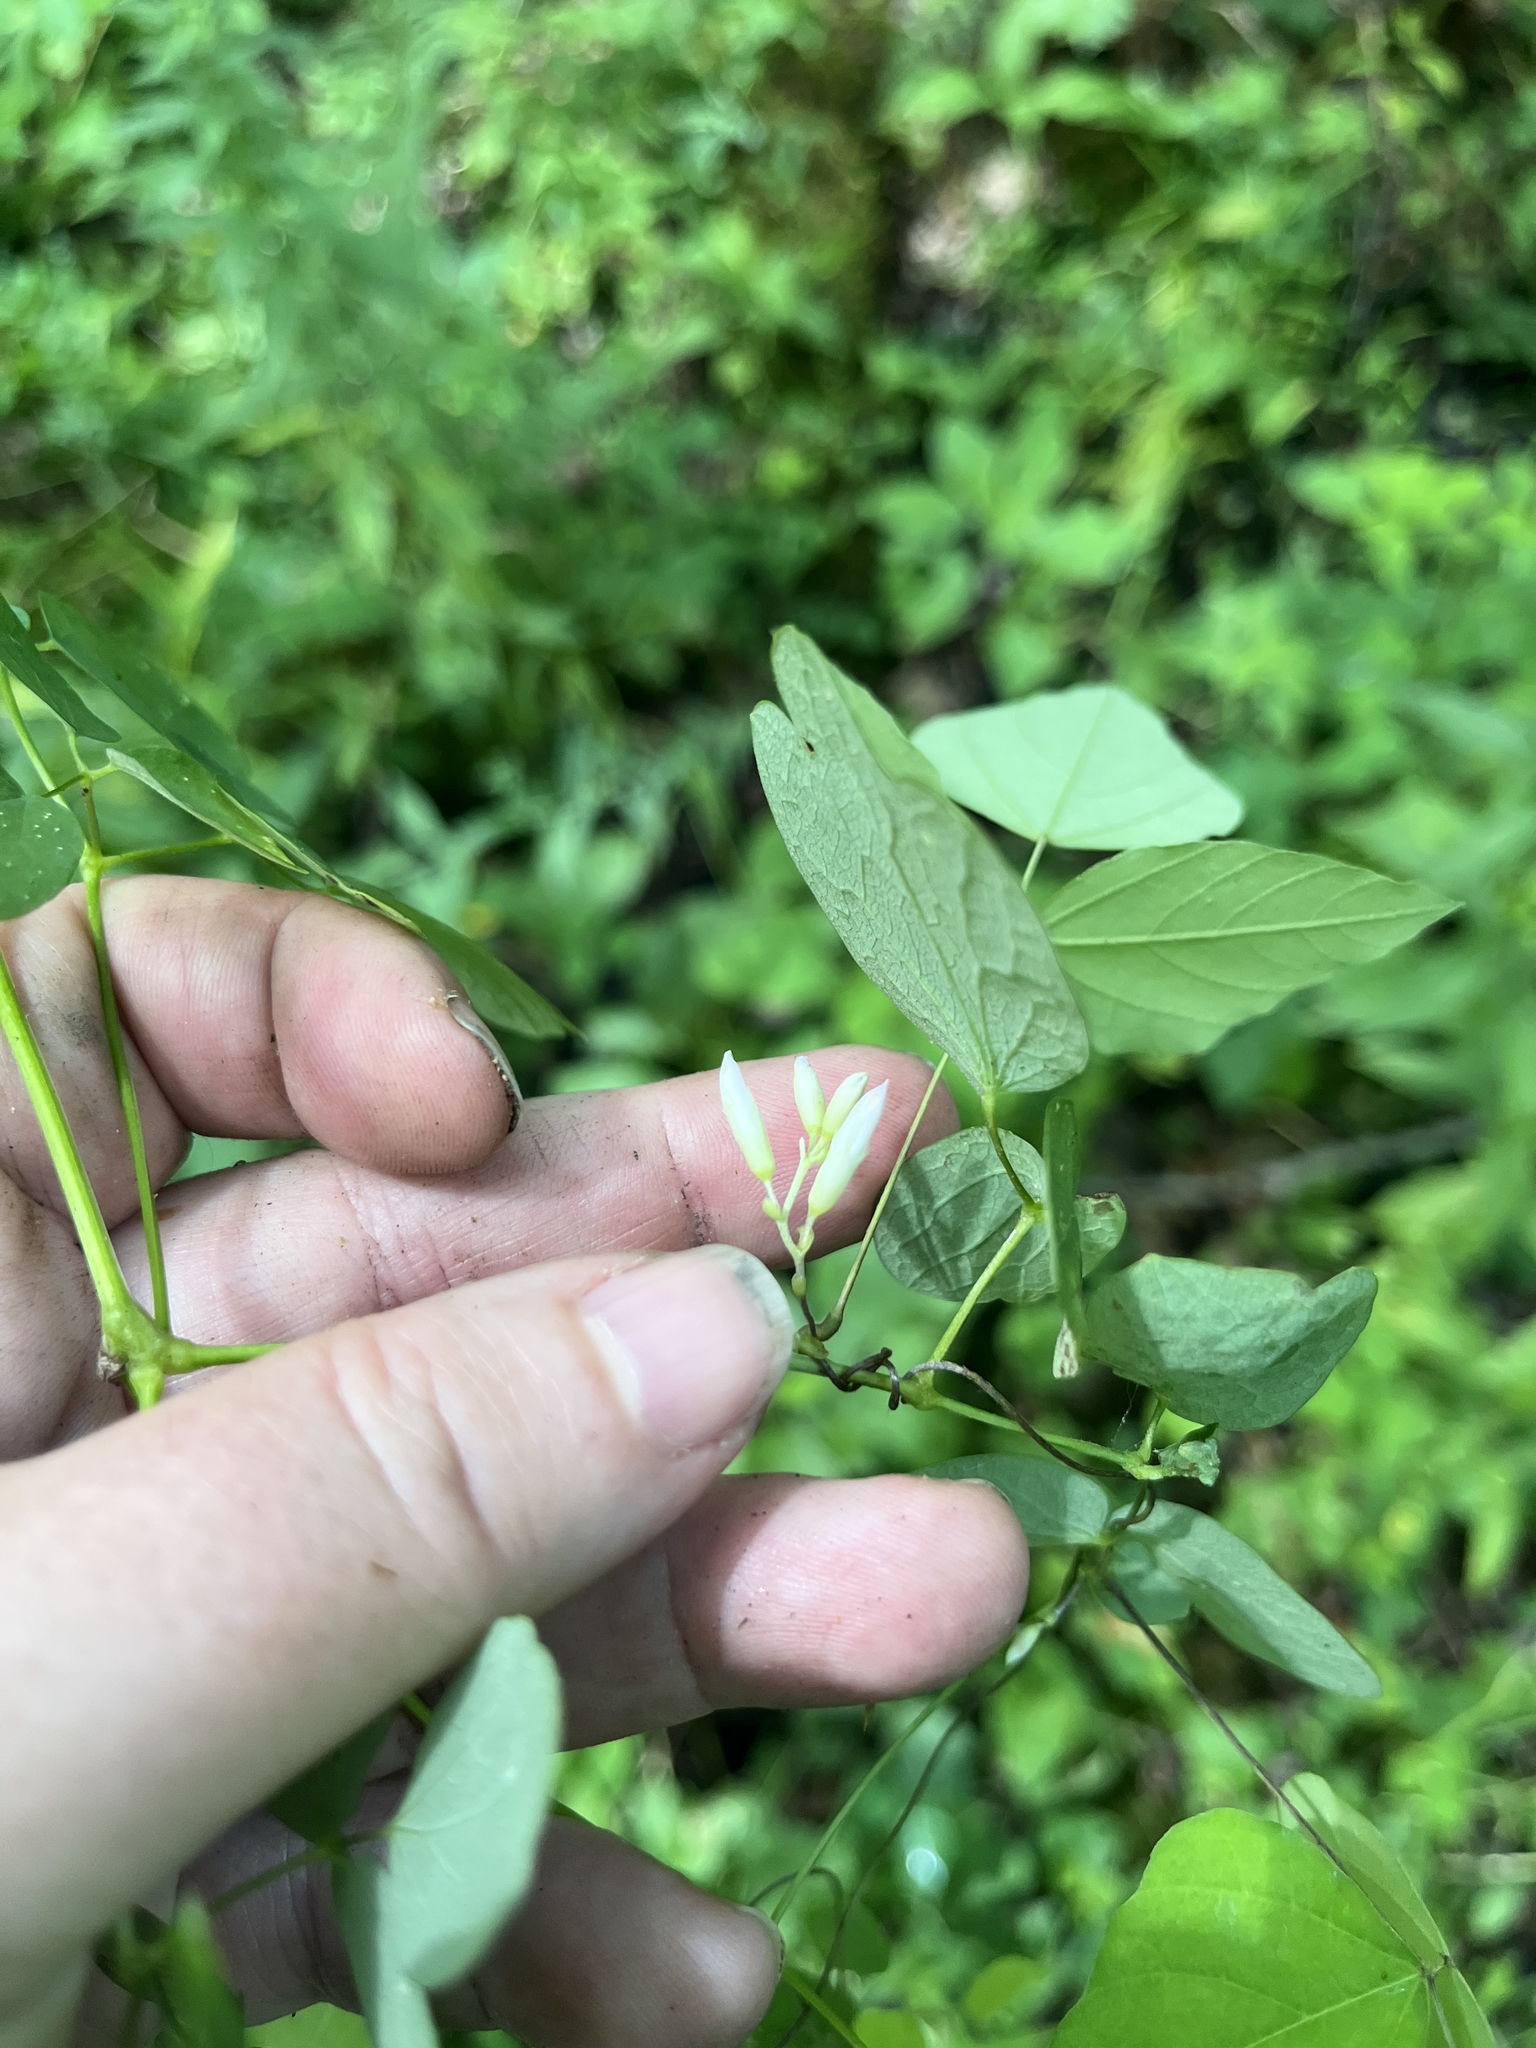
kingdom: Plantae
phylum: Tracheophyta
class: Magnoliopsida
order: Fabales
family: Fabaceae
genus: Amphicarpaea
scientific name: Amphicarpaea bracteata
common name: American hog peanut
